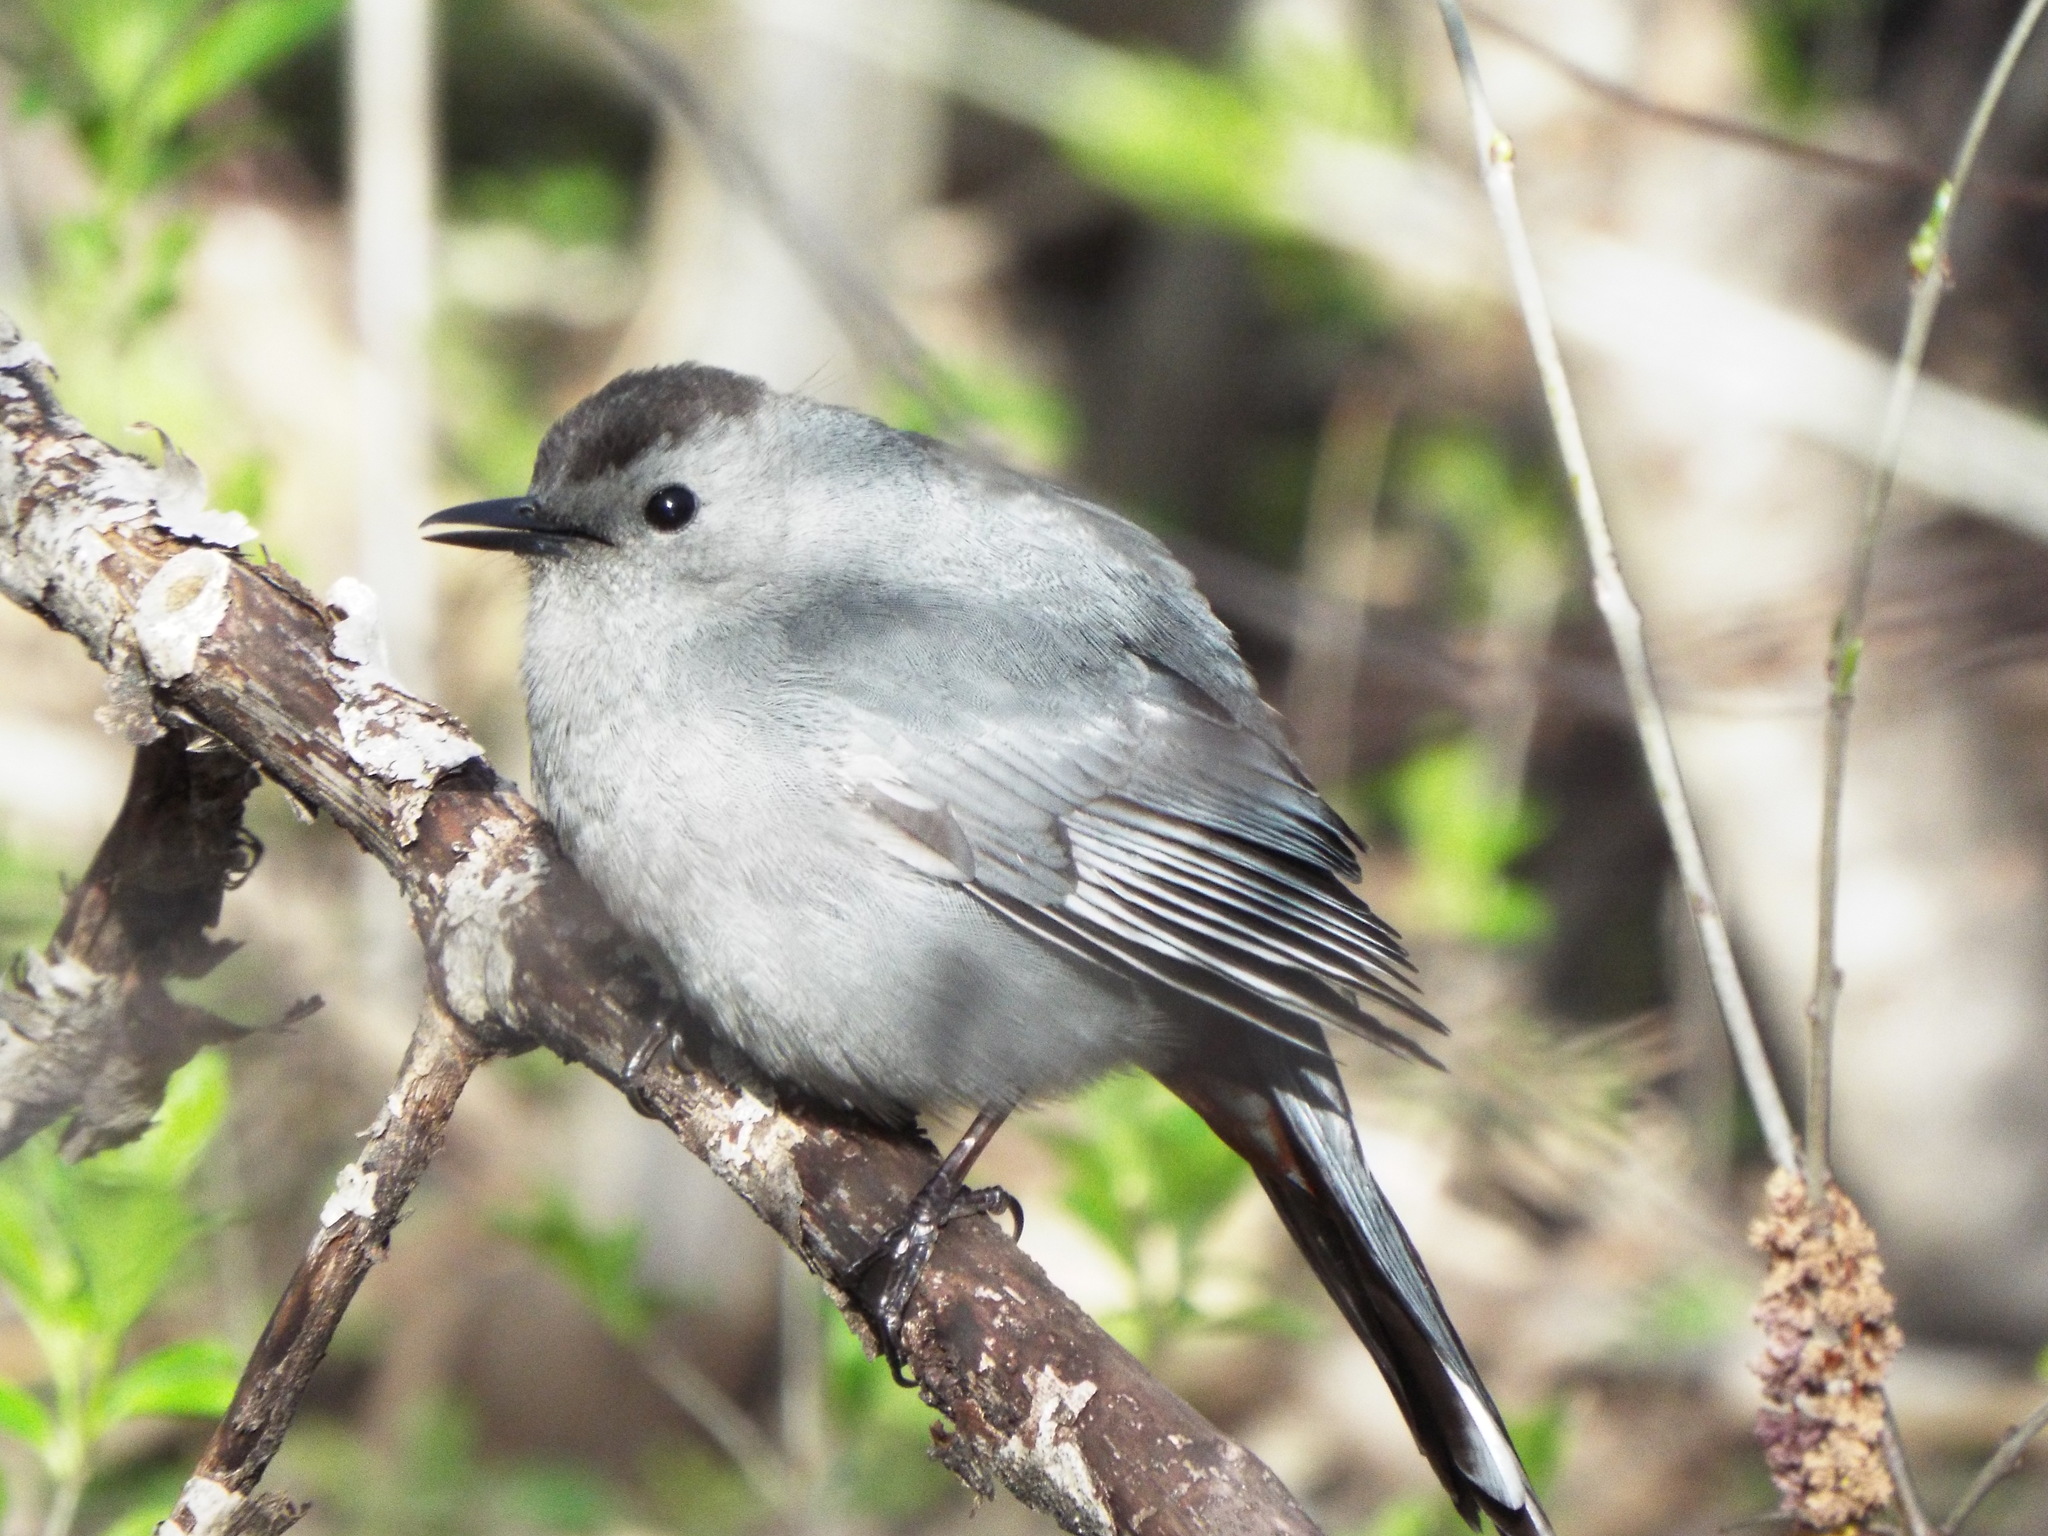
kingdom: Animalia
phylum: Chordata
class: Aves
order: Passeriformes
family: Mimidae
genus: Dumetella
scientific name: Dumetella carolinensis
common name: Gray catbird
